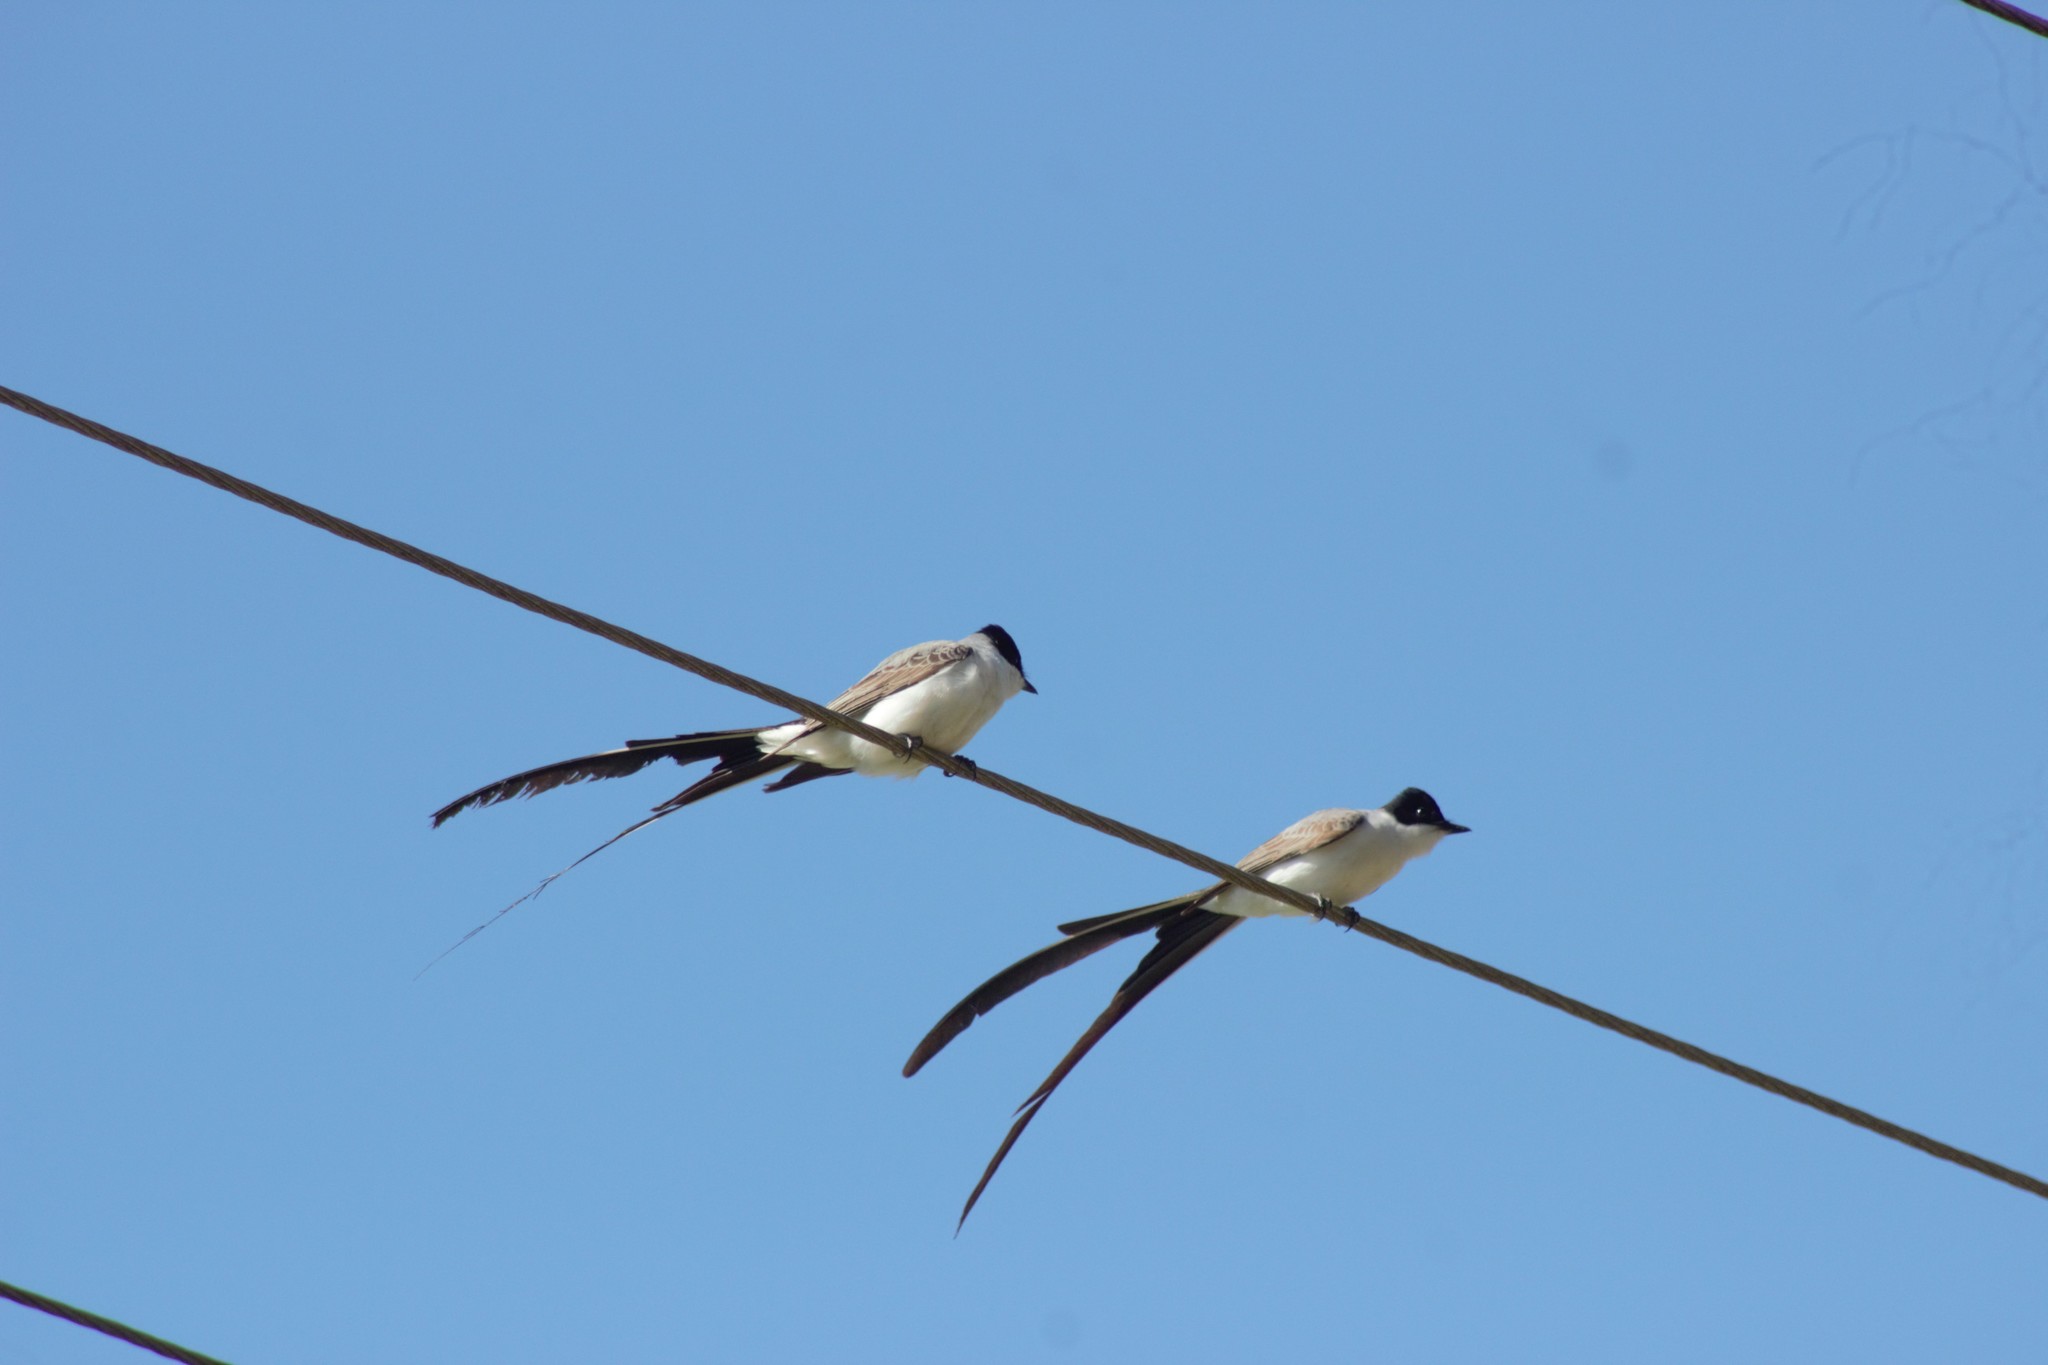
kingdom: Animalia
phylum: Chordata
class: Aves
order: Passeriformes
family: Tyrannidae
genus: Tyrannus
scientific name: Tyrannus savana
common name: Fork-tailed flycatcher
